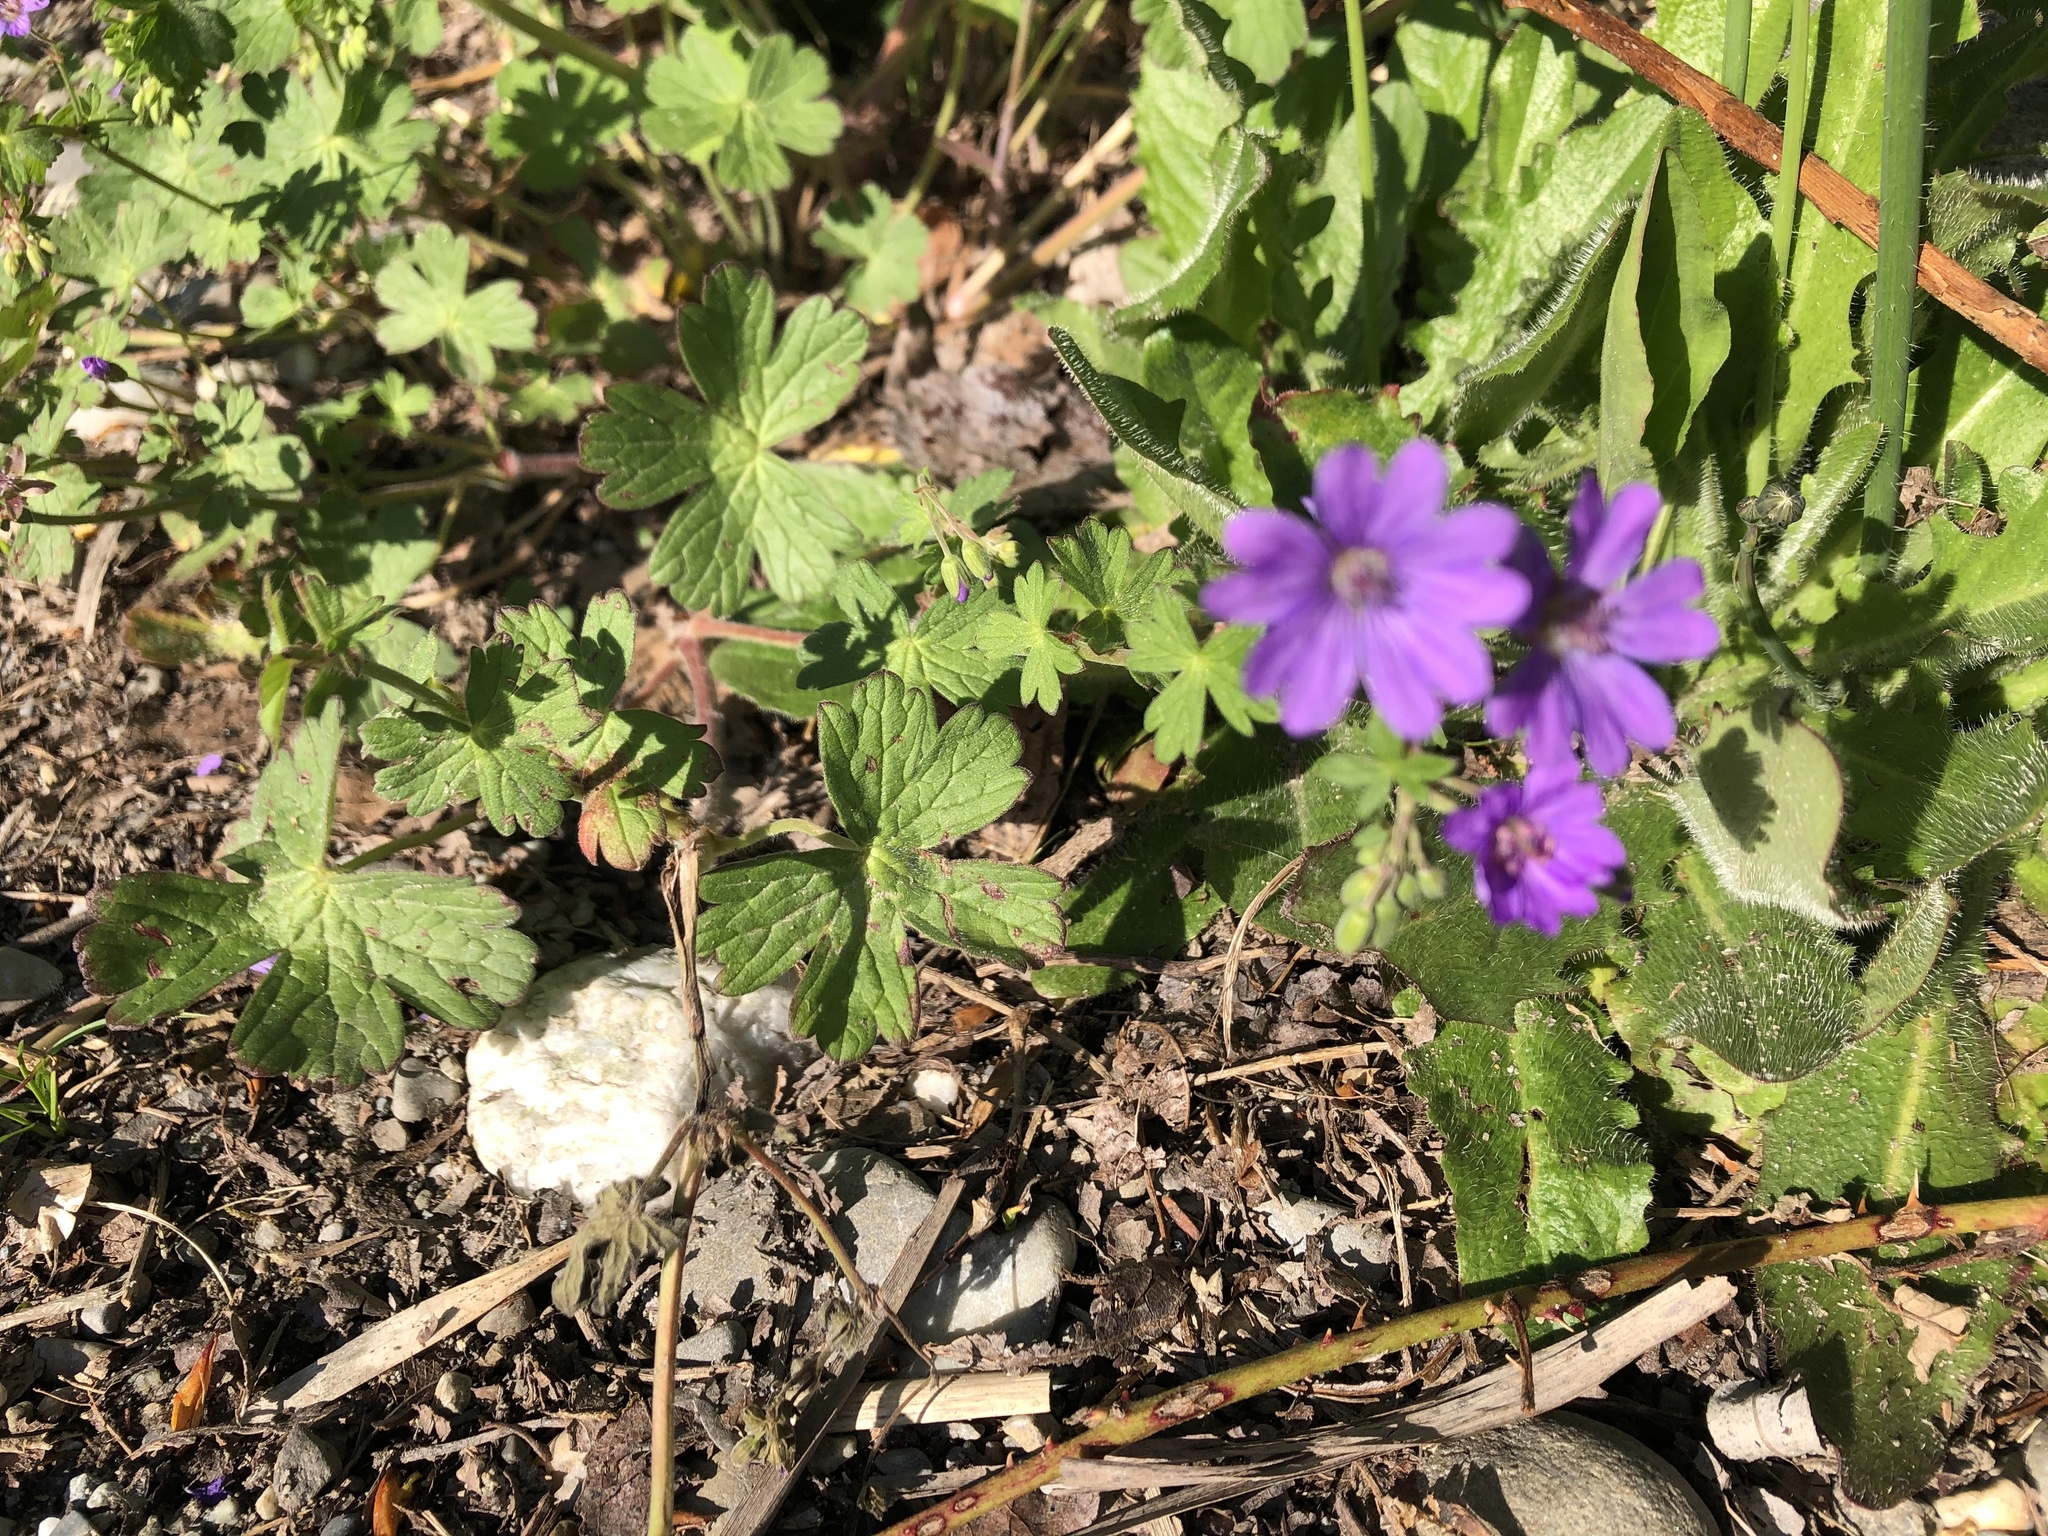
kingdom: Plantae
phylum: Tracheophyta
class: Magnoliopsida
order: Geraniales
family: Geraniaceae
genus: Geranium
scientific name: Geranium pyrenaicum
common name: Hedgerow crane's-bill
